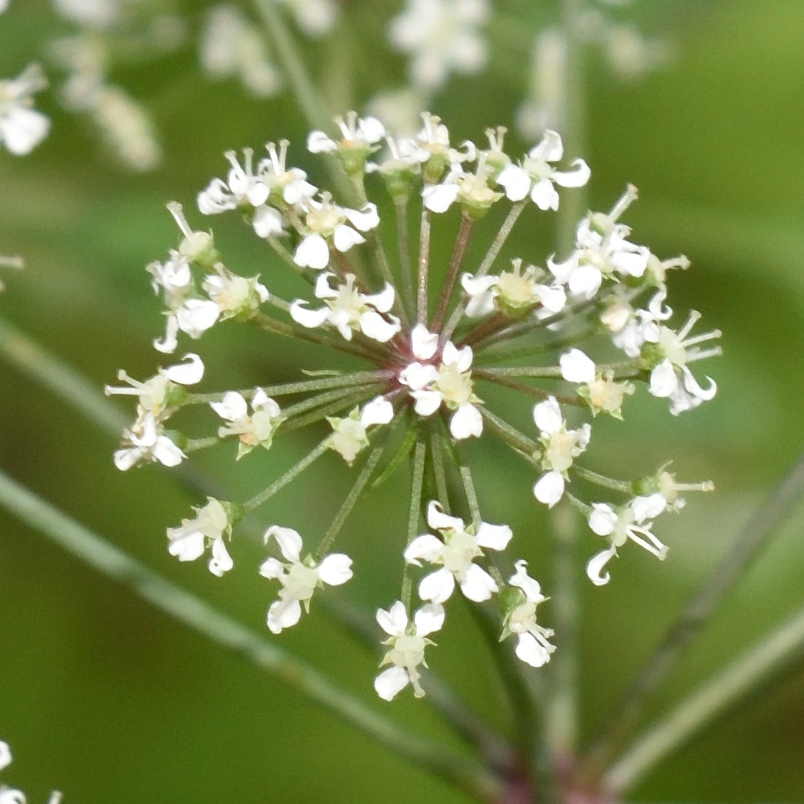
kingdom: Plantae
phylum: Tracheophyta
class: Magnoliopsida
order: Apiales
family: Apiaceae
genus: Cicuta
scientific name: Cicuta virosa
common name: Cowbane
